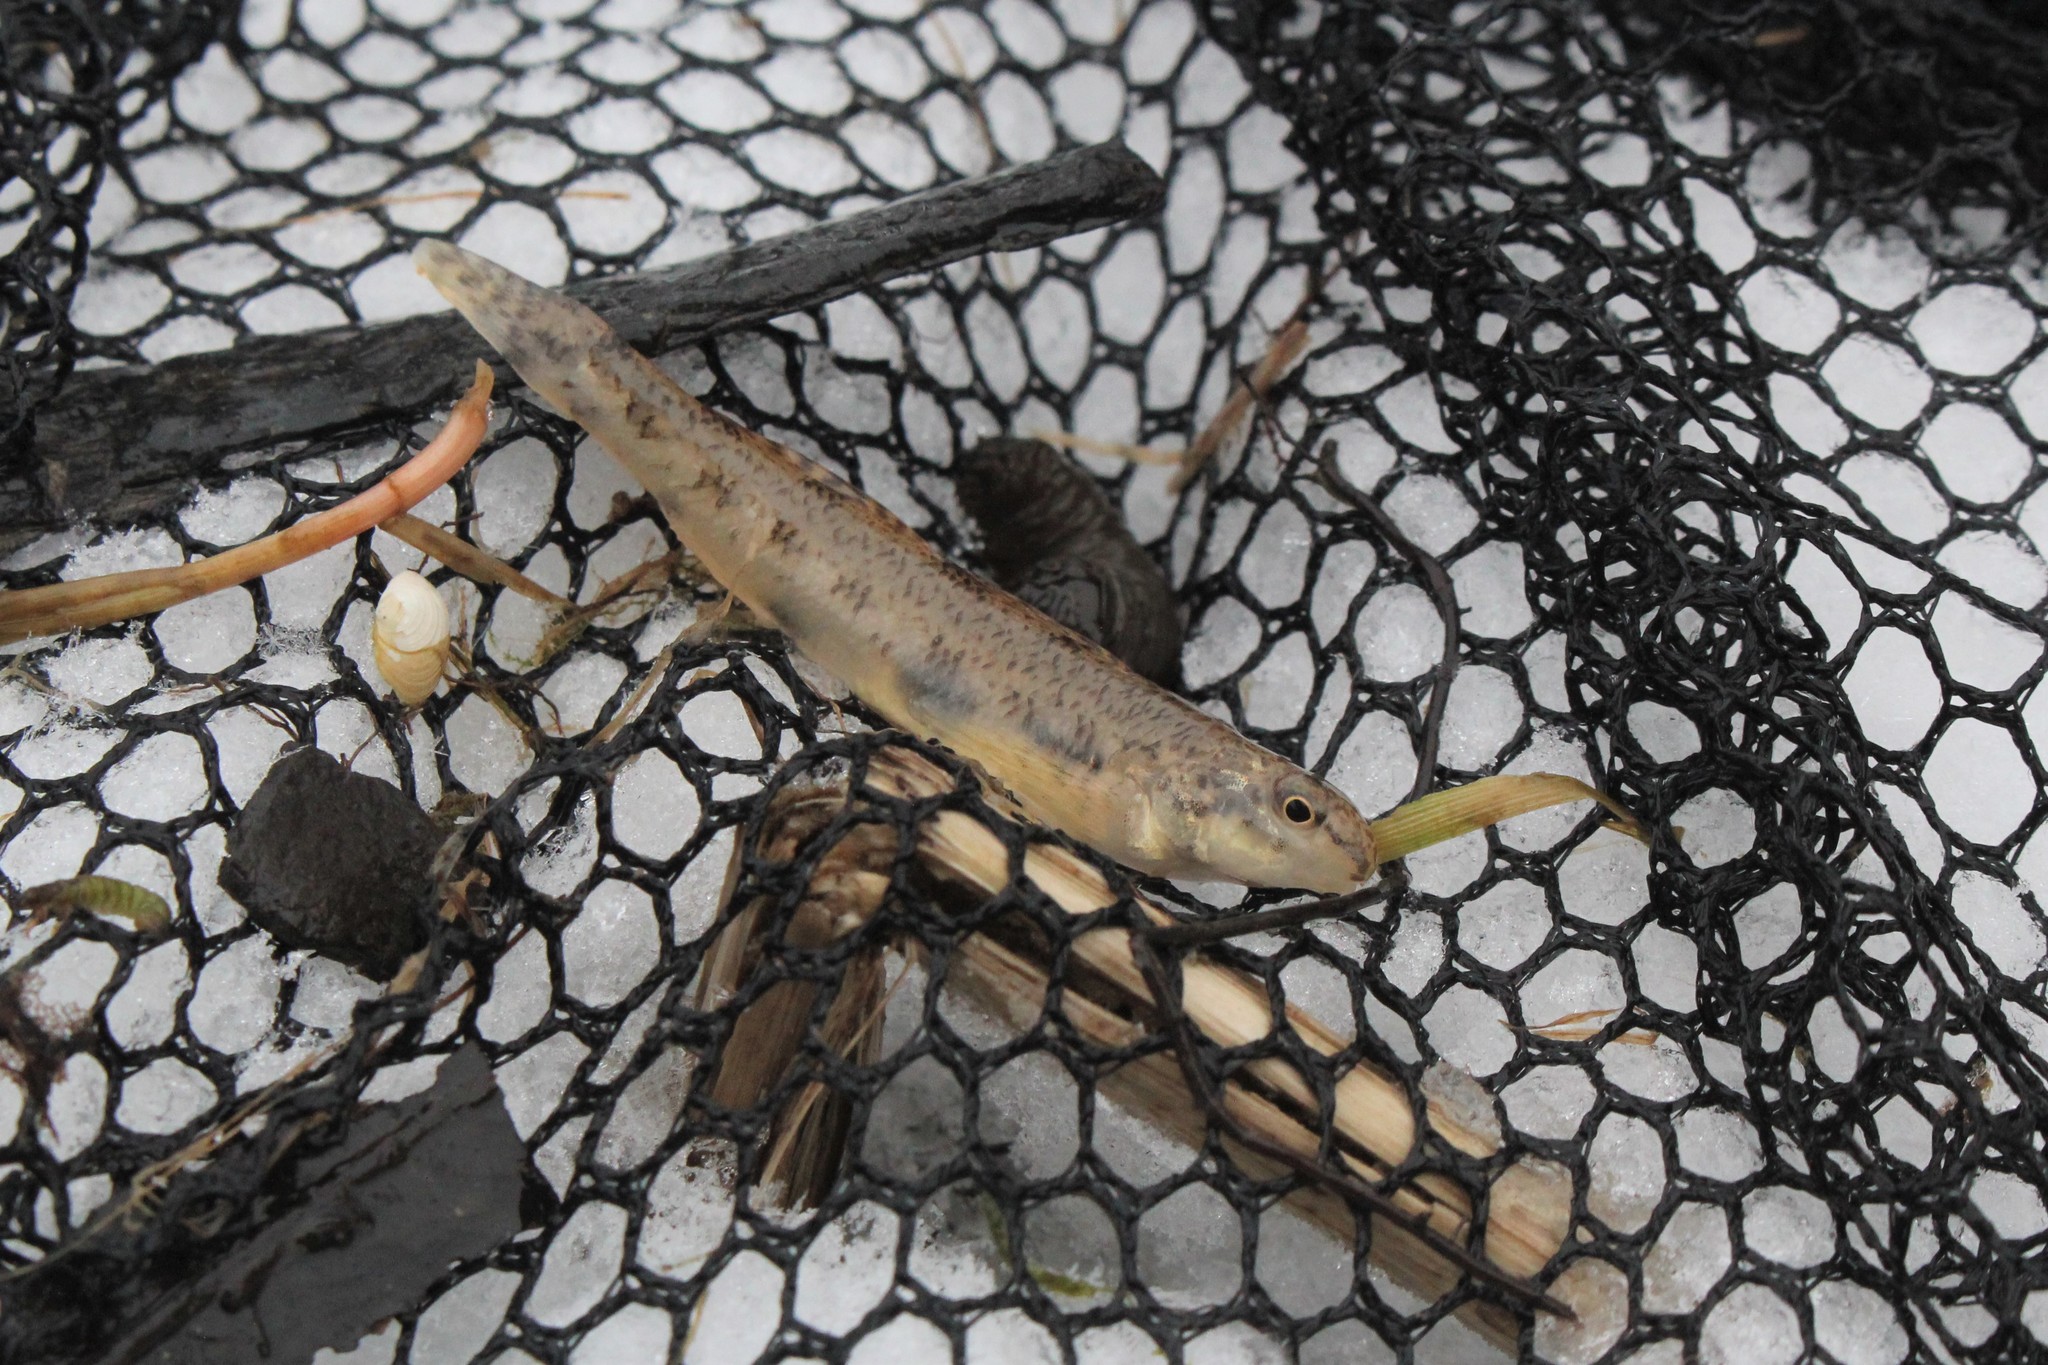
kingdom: Animalia
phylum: Chordata
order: Perciformes
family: Percidae
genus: Etheostoma
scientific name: Etheostoma nigrum
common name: Johnny darter
